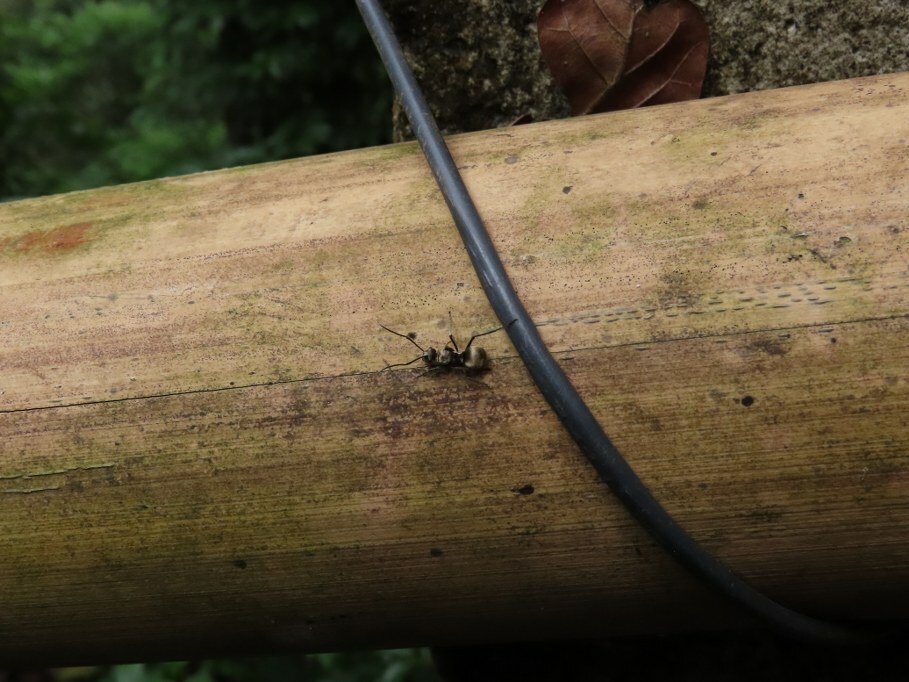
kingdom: Animalia
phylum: Arthropoda
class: Insecta
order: Hymenoptera
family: Formicidae
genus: Polyrhachis
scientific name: Polyrhachis illaudata
